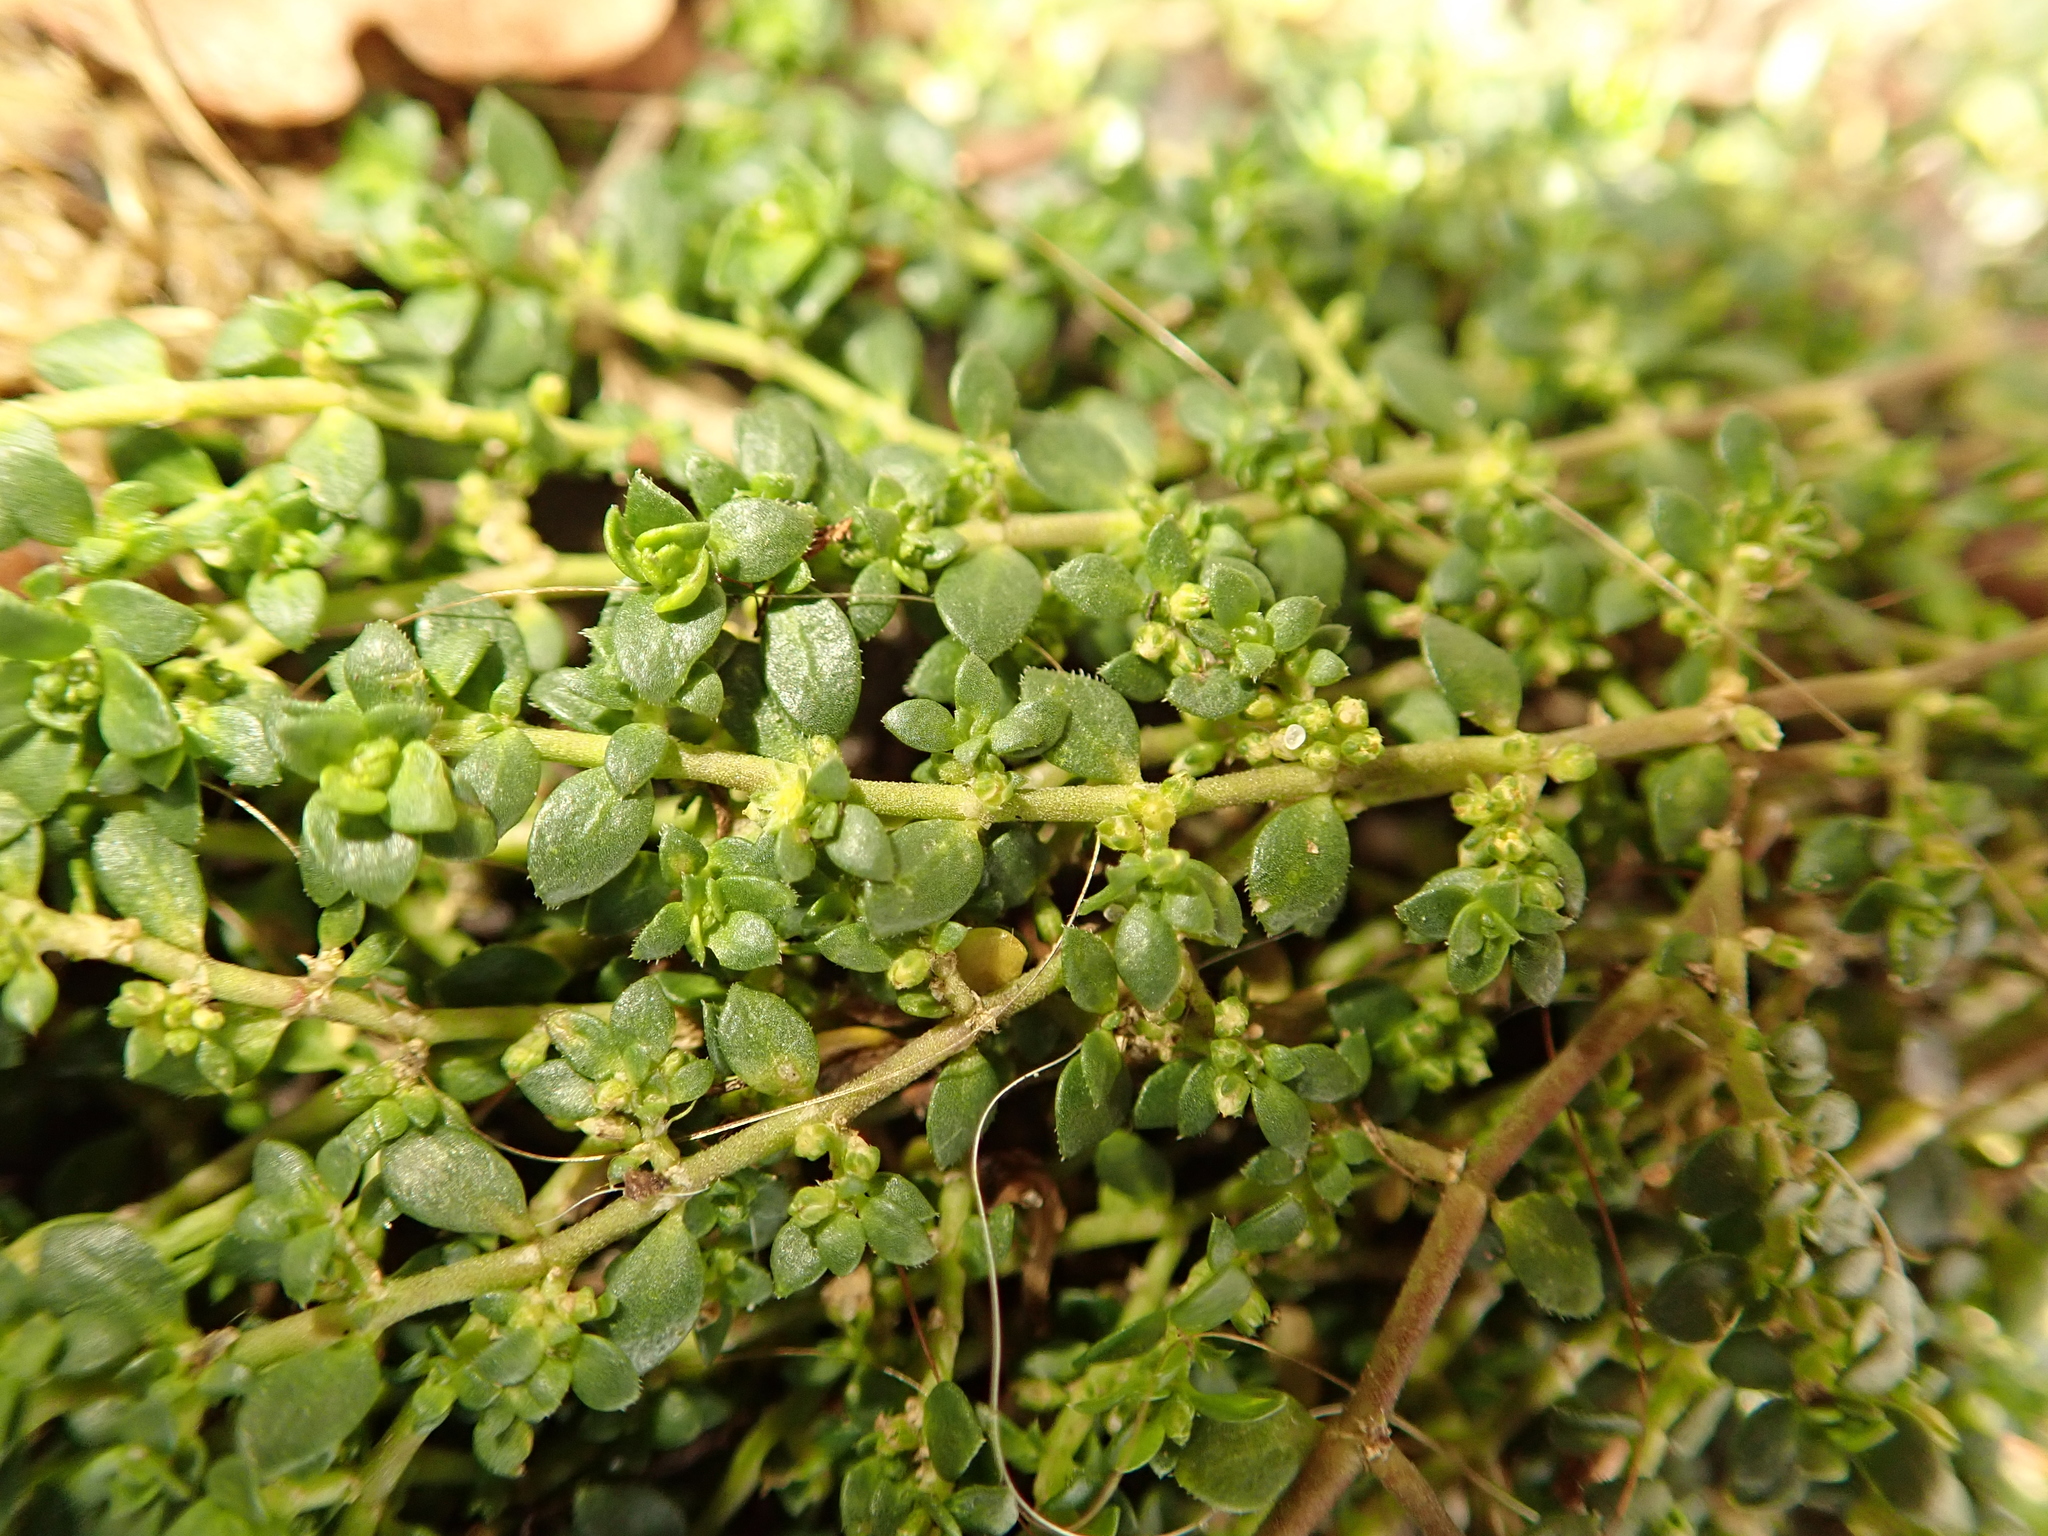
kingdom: Plantae
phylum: Tracheophyta
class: Magnoliopsida
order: Caryophyllales
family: Caryophyllaceae
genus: Herniaria
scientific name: Herniaria glabra
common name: Smooth rupturewort
